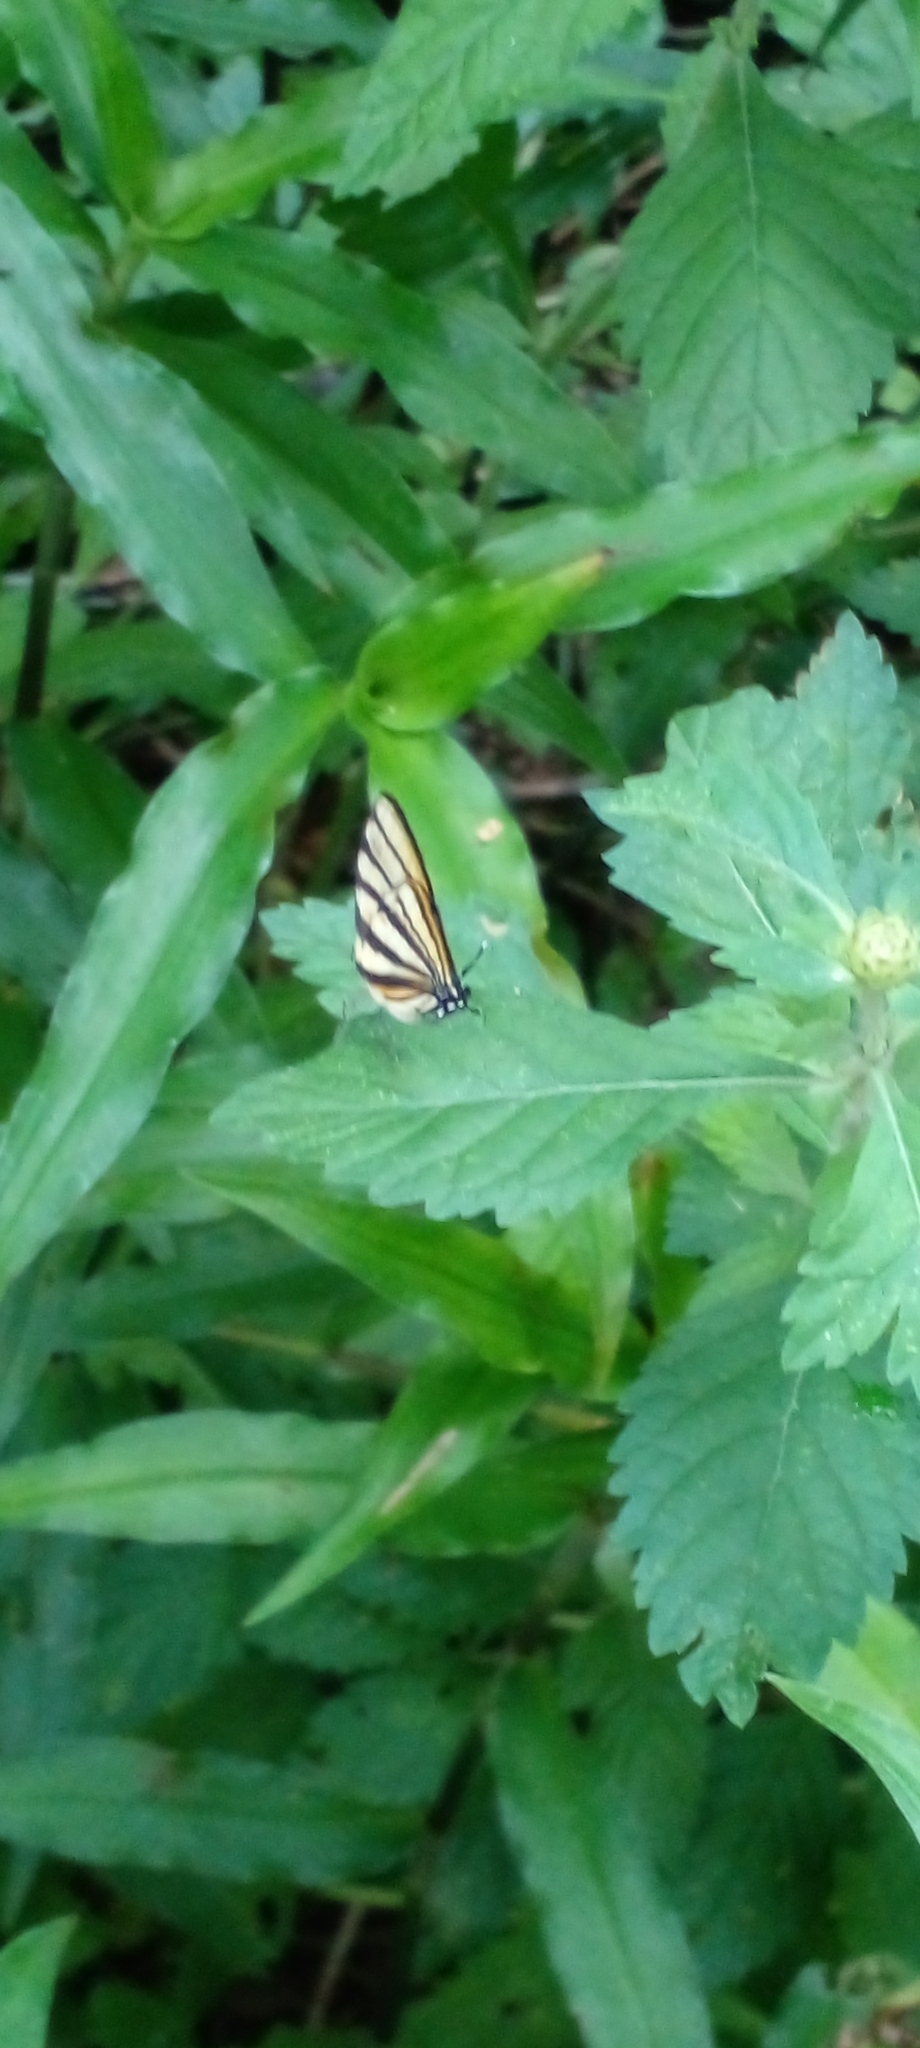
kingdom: Animalia
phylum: Arthropoda
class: Insecta
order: Lepidoptera
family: Lycaenidae
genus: Arawacus
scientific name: Arawacus separata
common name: Separated stripestreak
